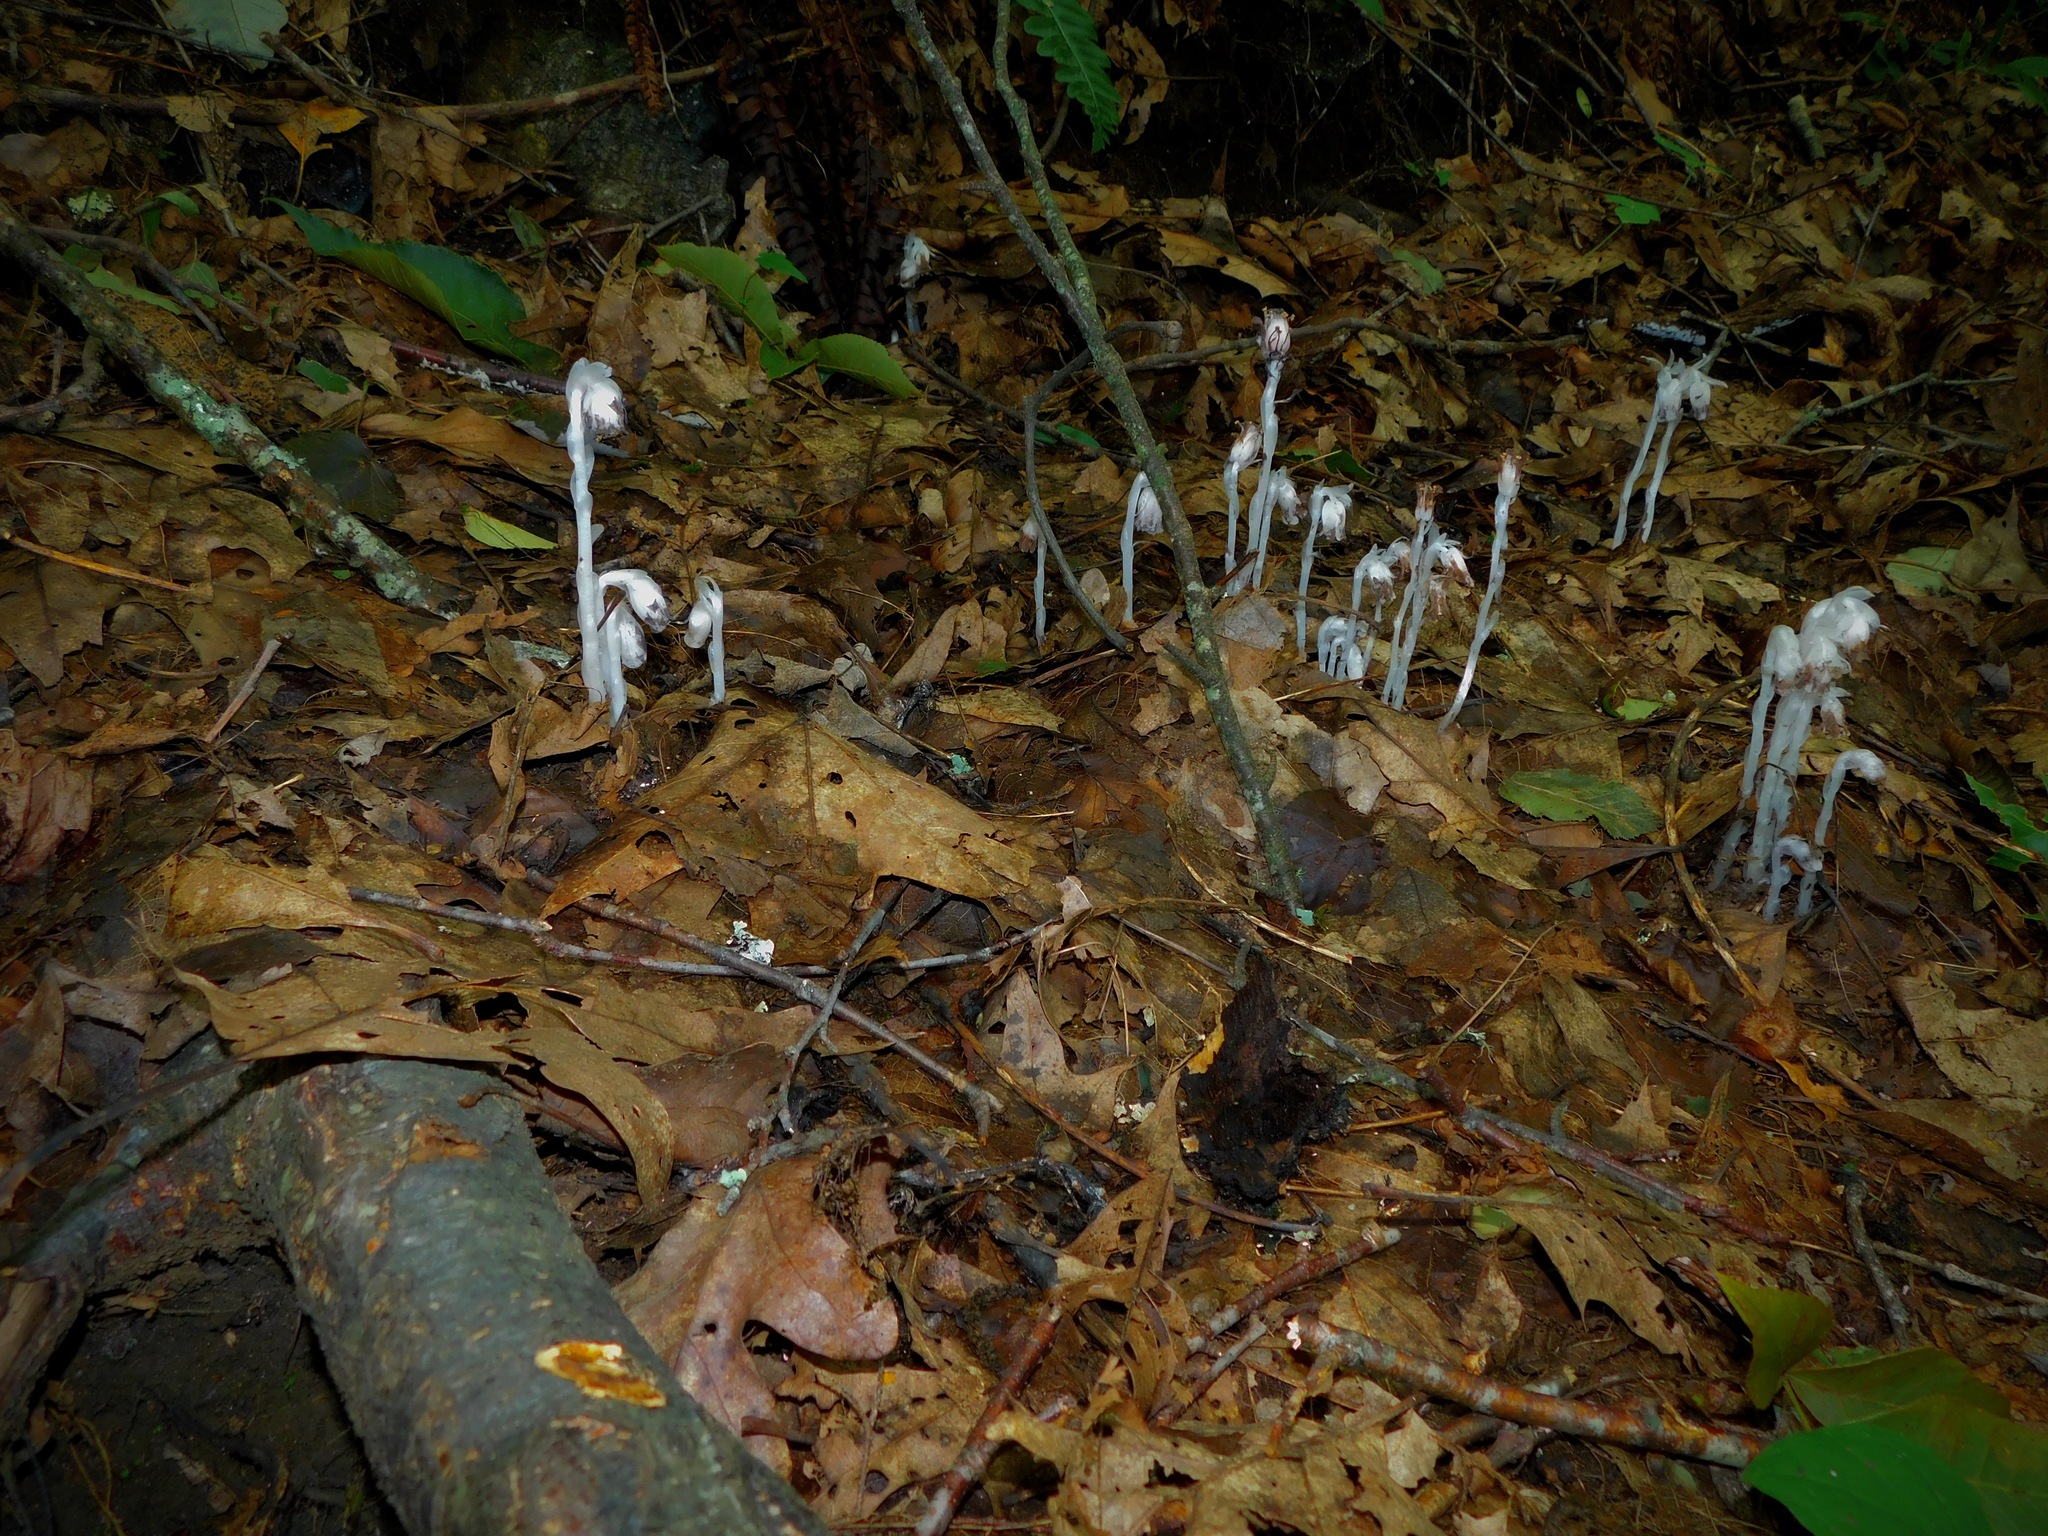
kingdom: Plantae
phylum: Tracheophyta
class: Magnoliopsida
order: Ericales
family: Ericaceae
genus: Monotropa
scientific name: Monotropa uniflora
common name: Convulsion root
